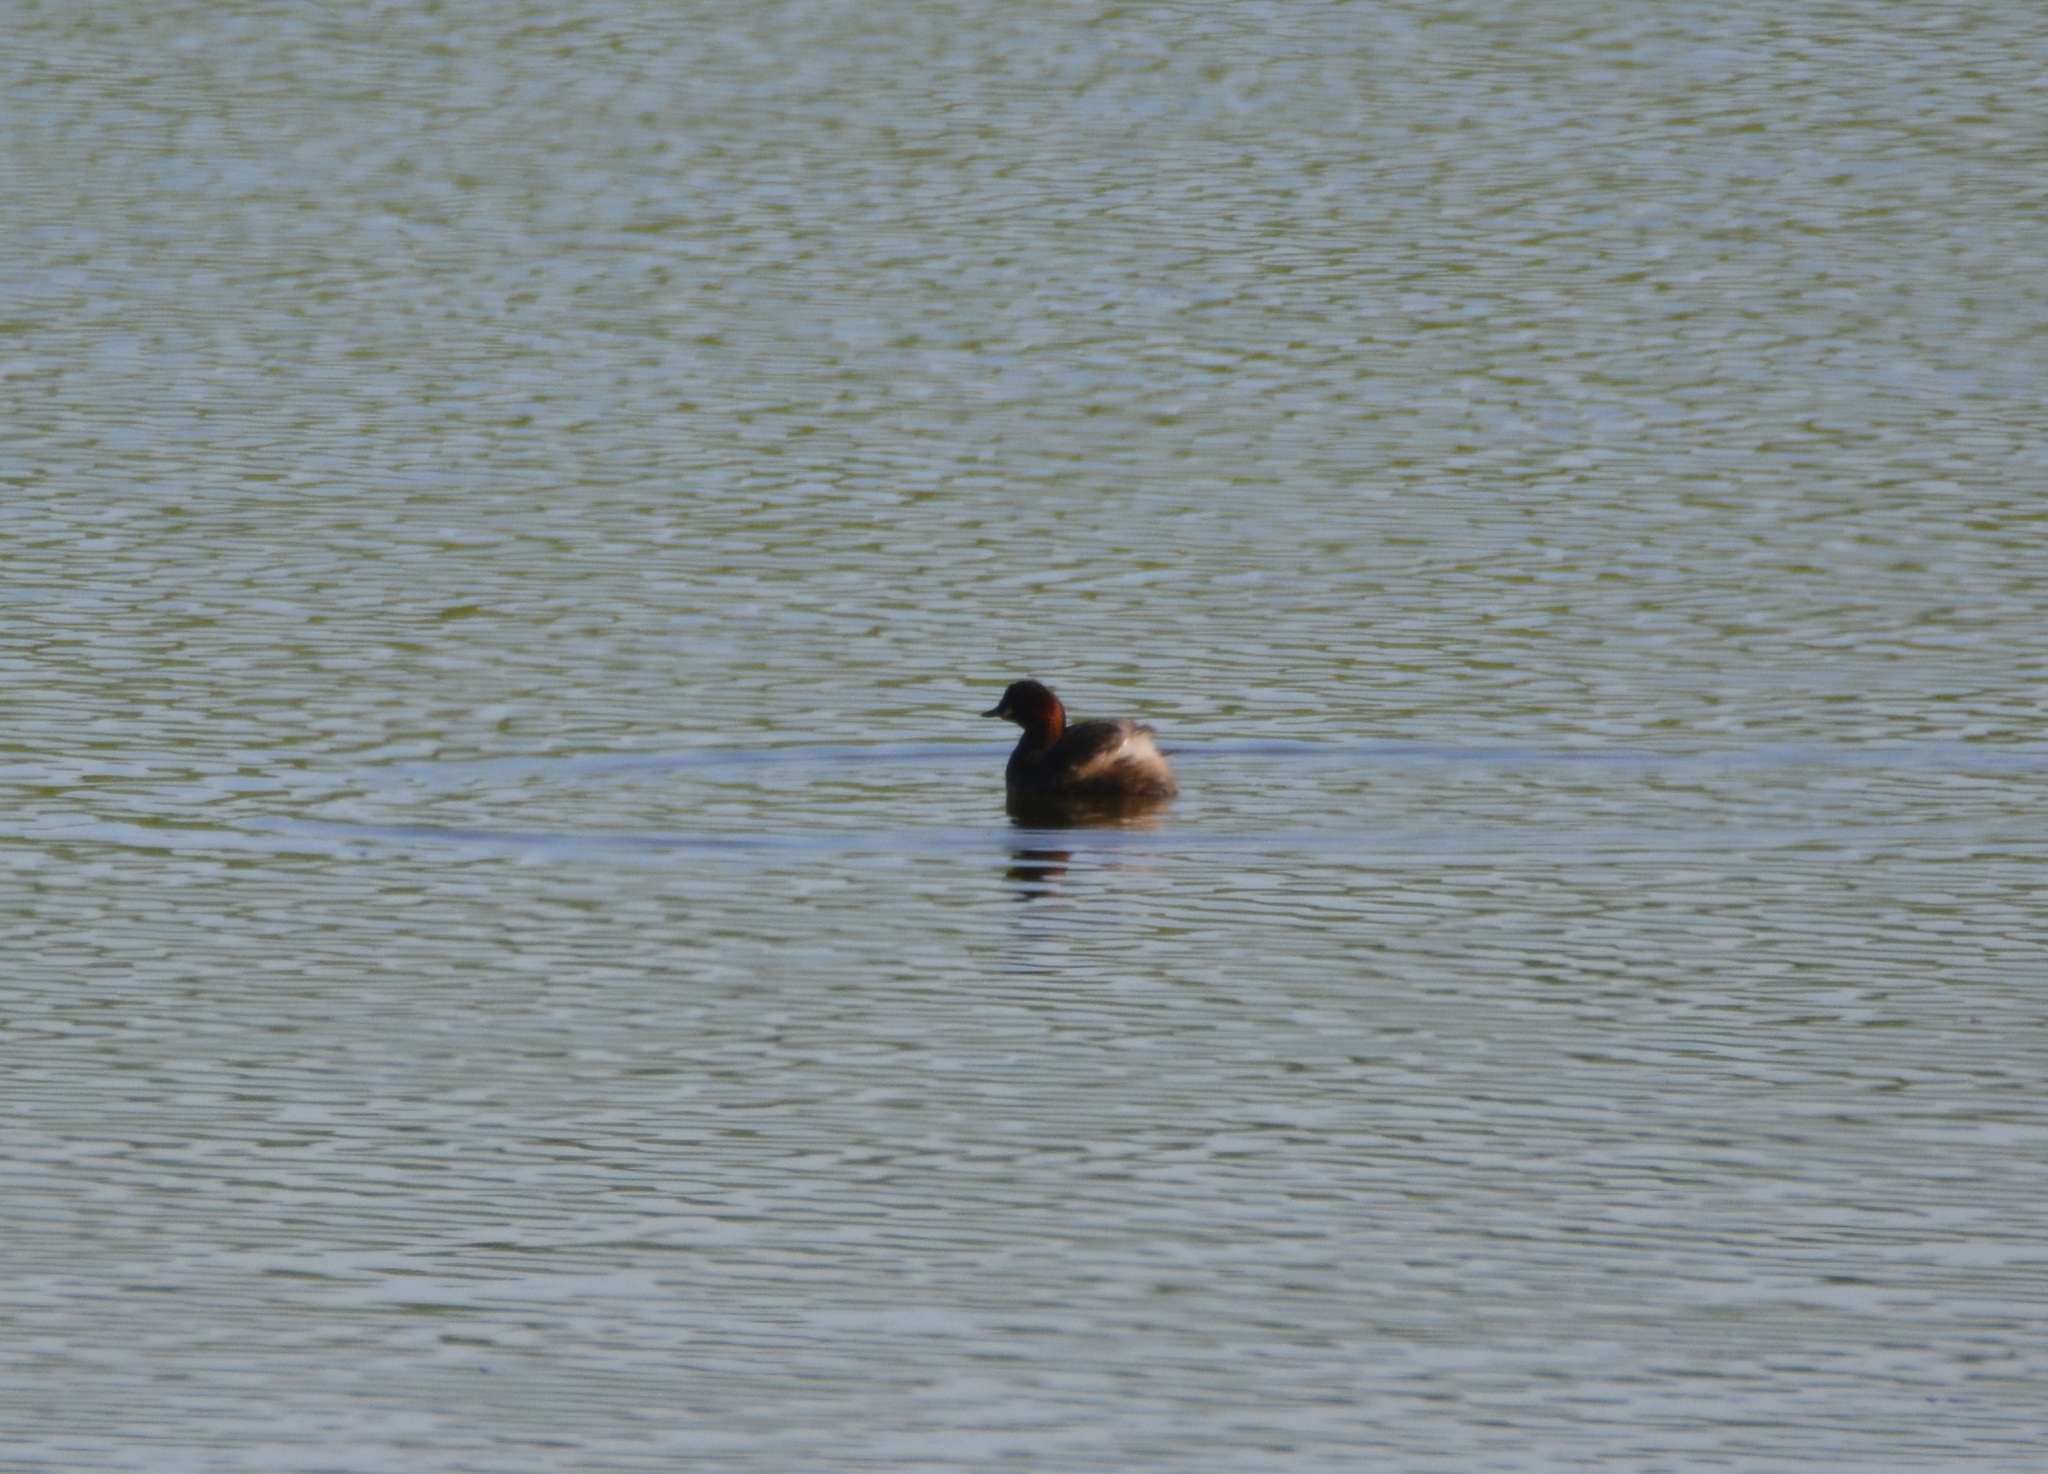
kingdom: Animalia
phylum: Chordata
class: Aves
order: Podicipediformes
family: Podicipedidae
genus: Tachybaptus
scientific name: Tachybaptus ruficollis
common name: Little grebe
